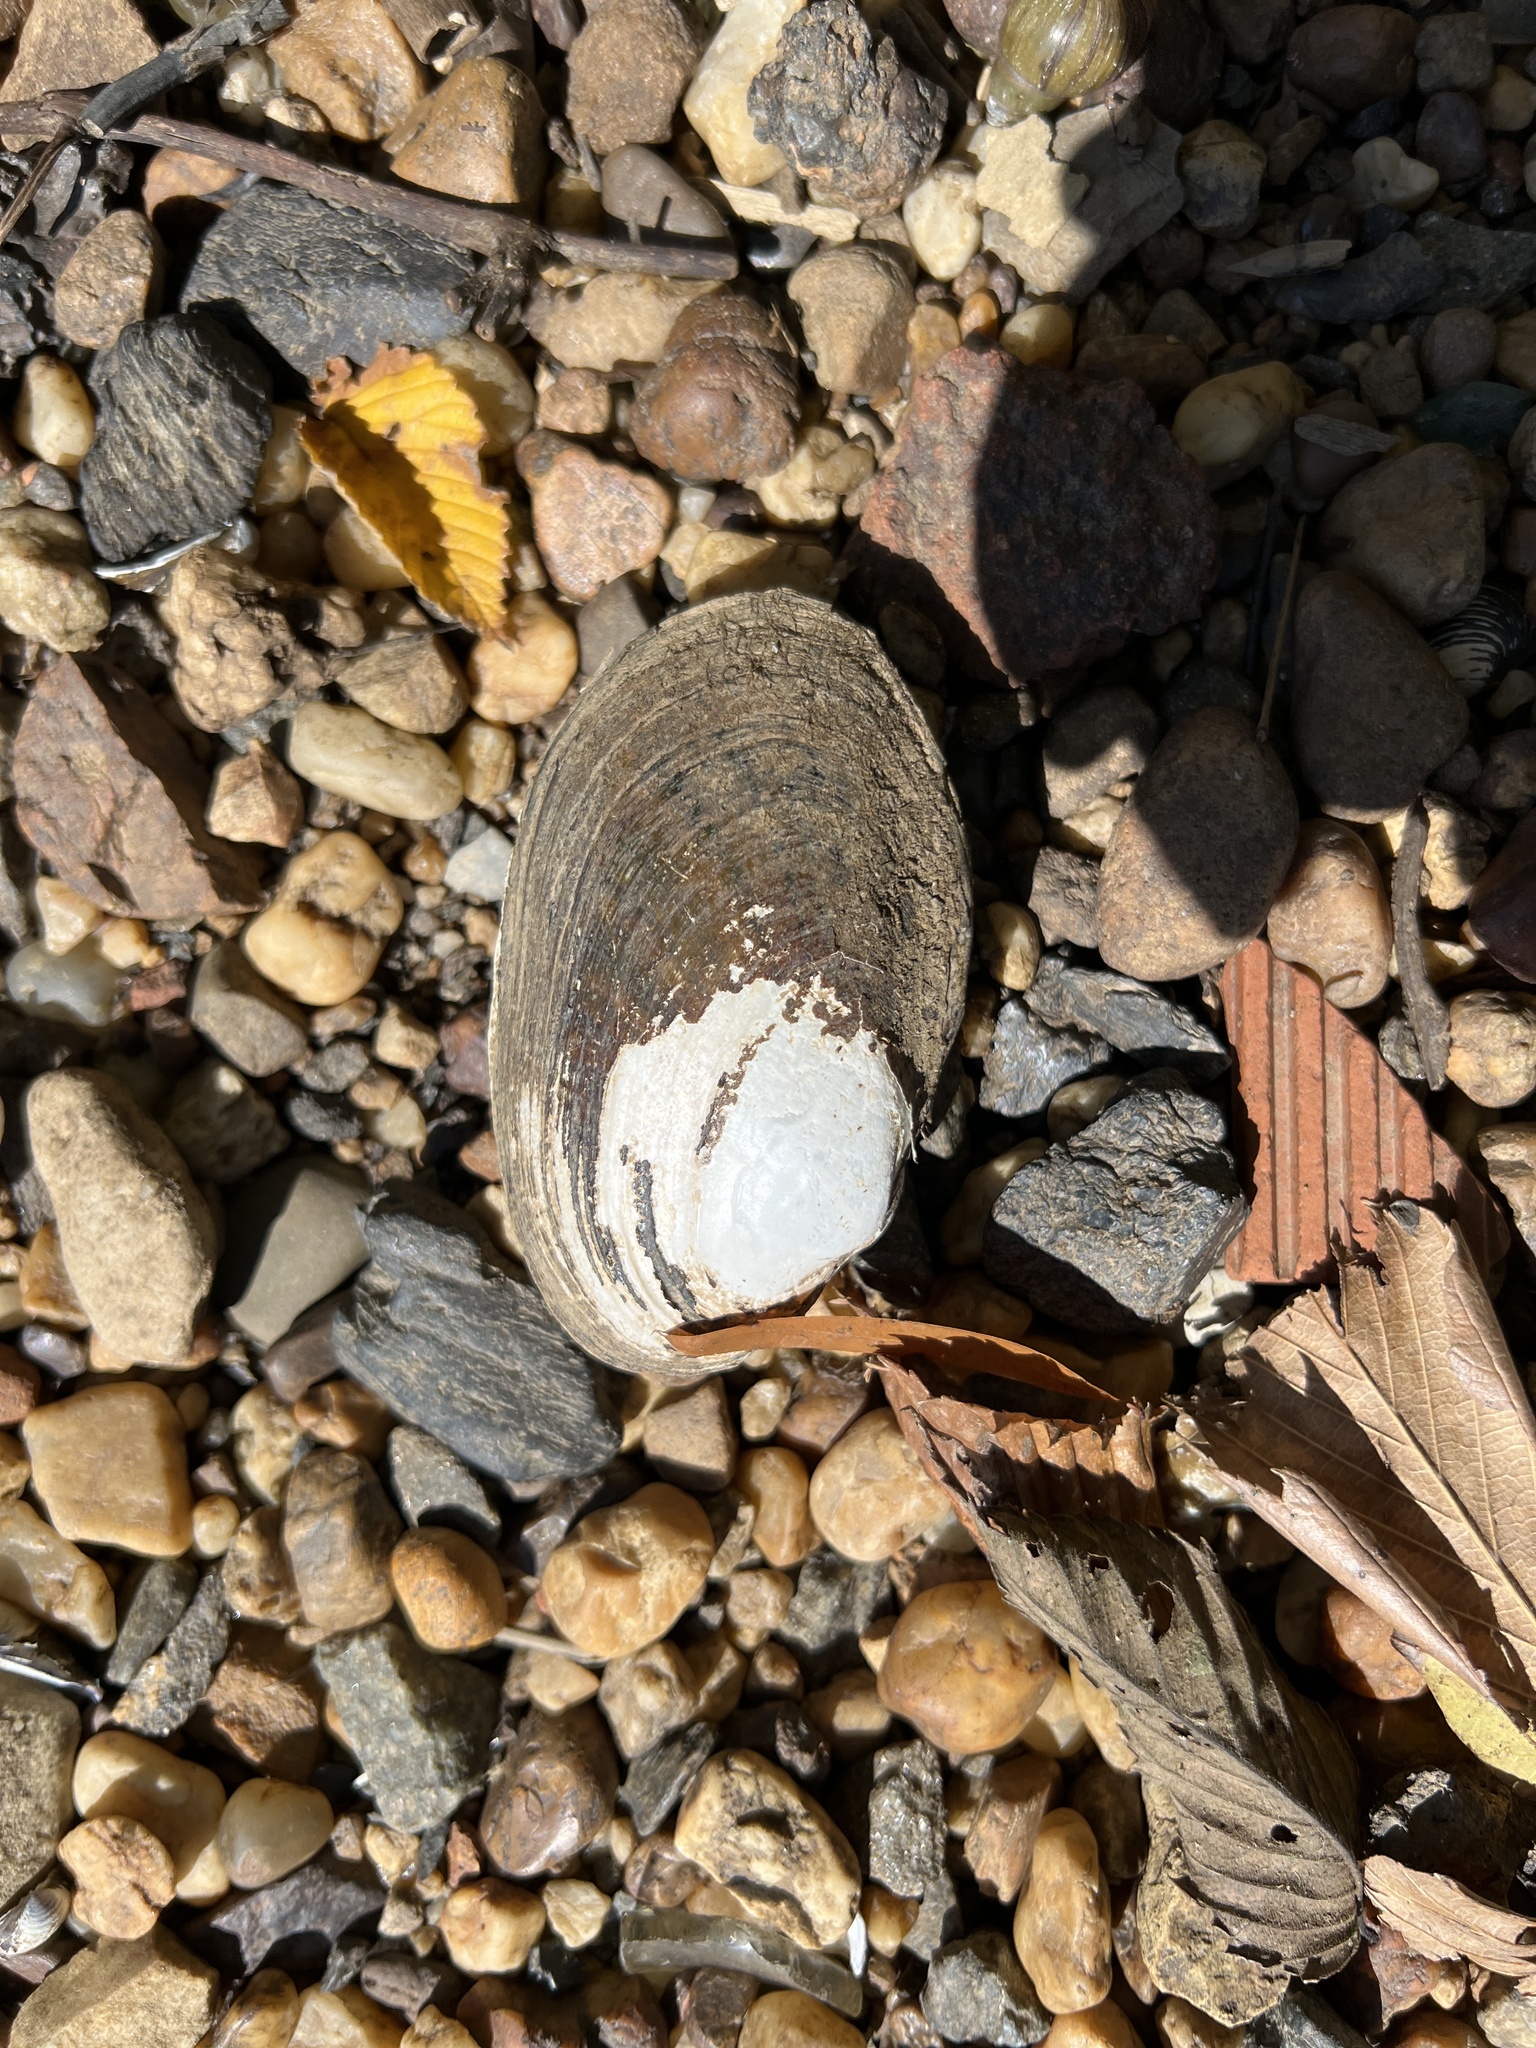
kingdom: Animalia
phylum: Mollusca
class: Bivalvia
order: Unionida
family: Unionidae
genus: Lampsilis
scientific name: Lampsilis radiata
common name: Eastern lampmussel
